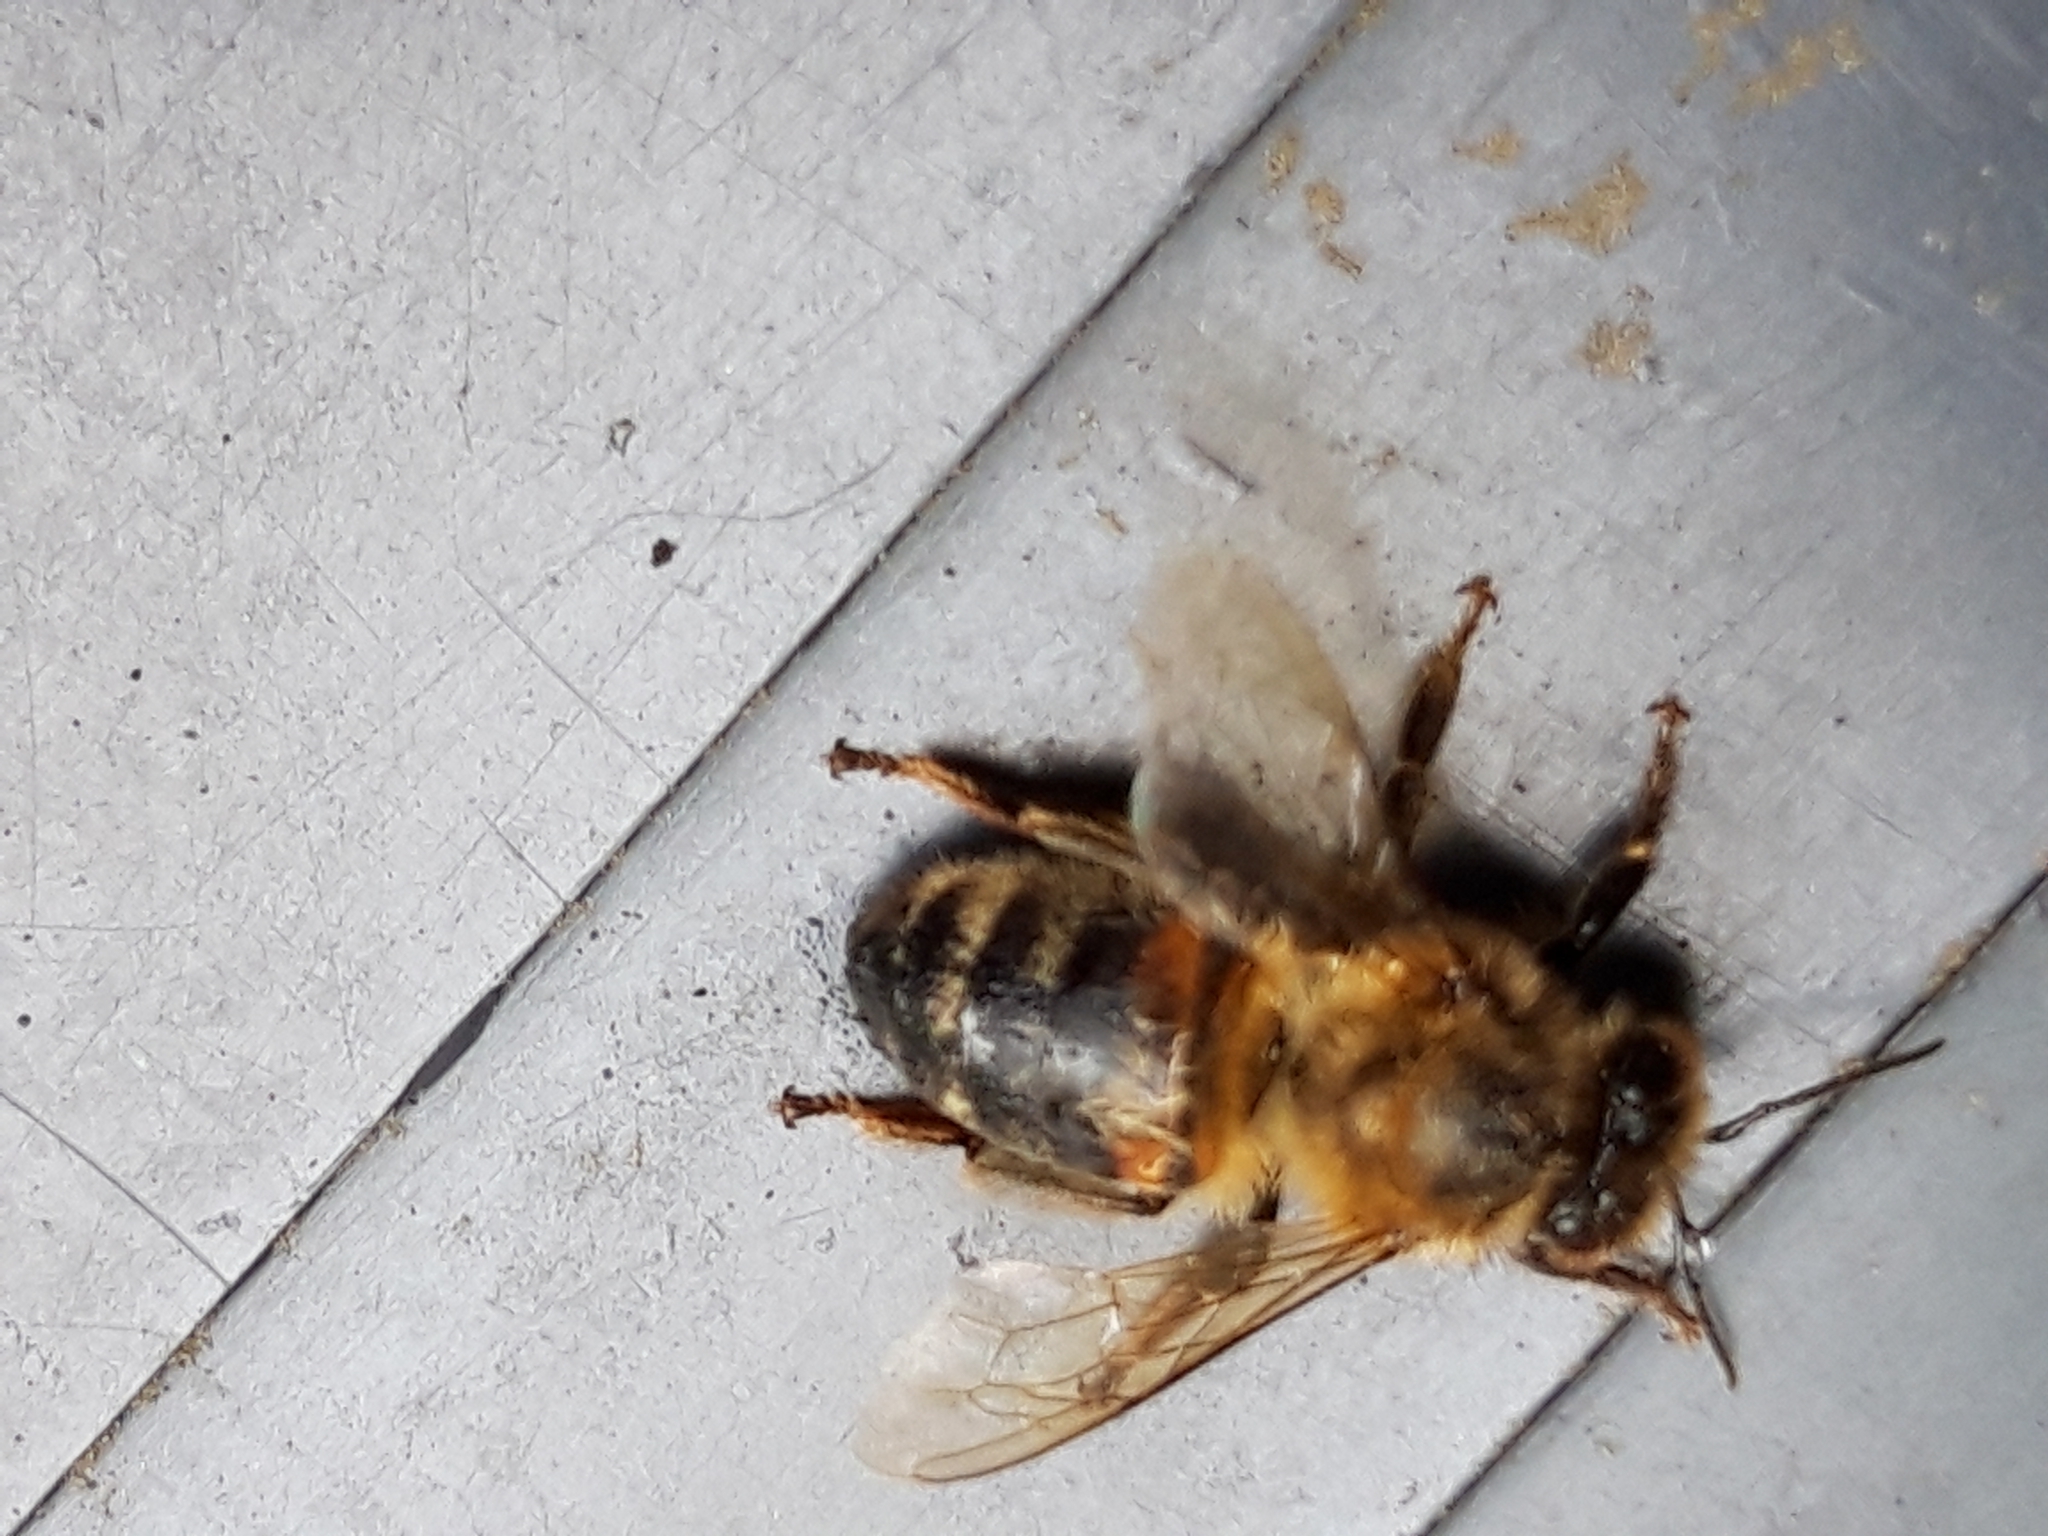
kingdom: Animalia
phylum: Arthropoda
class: Insecta
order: Hymenoptera
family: Apidae
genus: Apis
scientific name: Apis mellifera
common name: Honey bee
